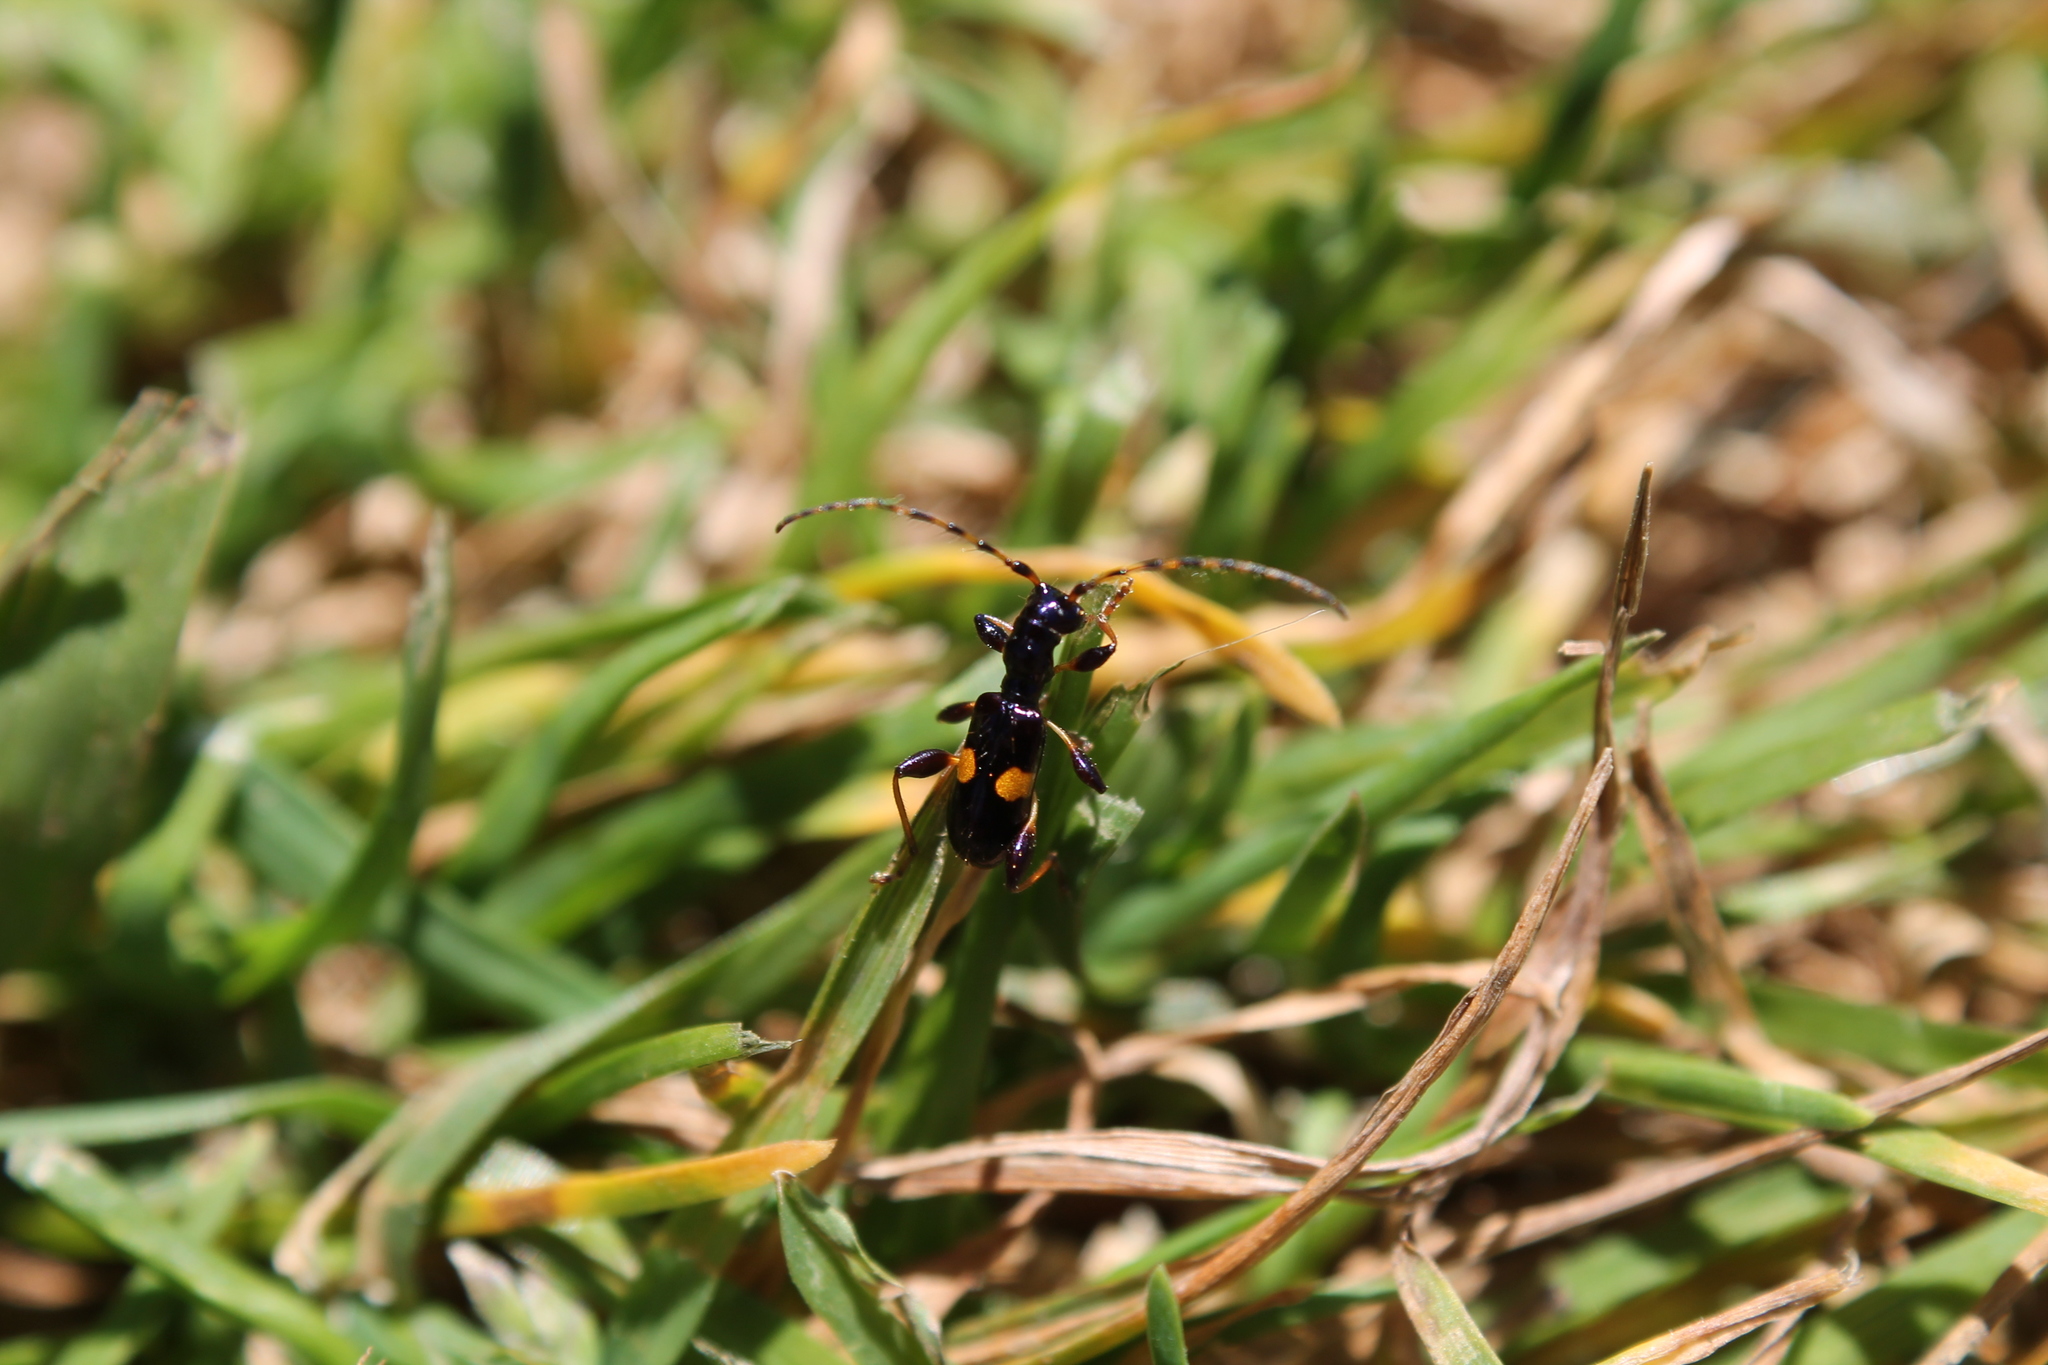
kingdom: Animalia
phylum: Arthropoda
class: Insecta
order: Coleoptera
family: Cerambycidae
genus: Zorion
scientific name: Zorion guttigerum
